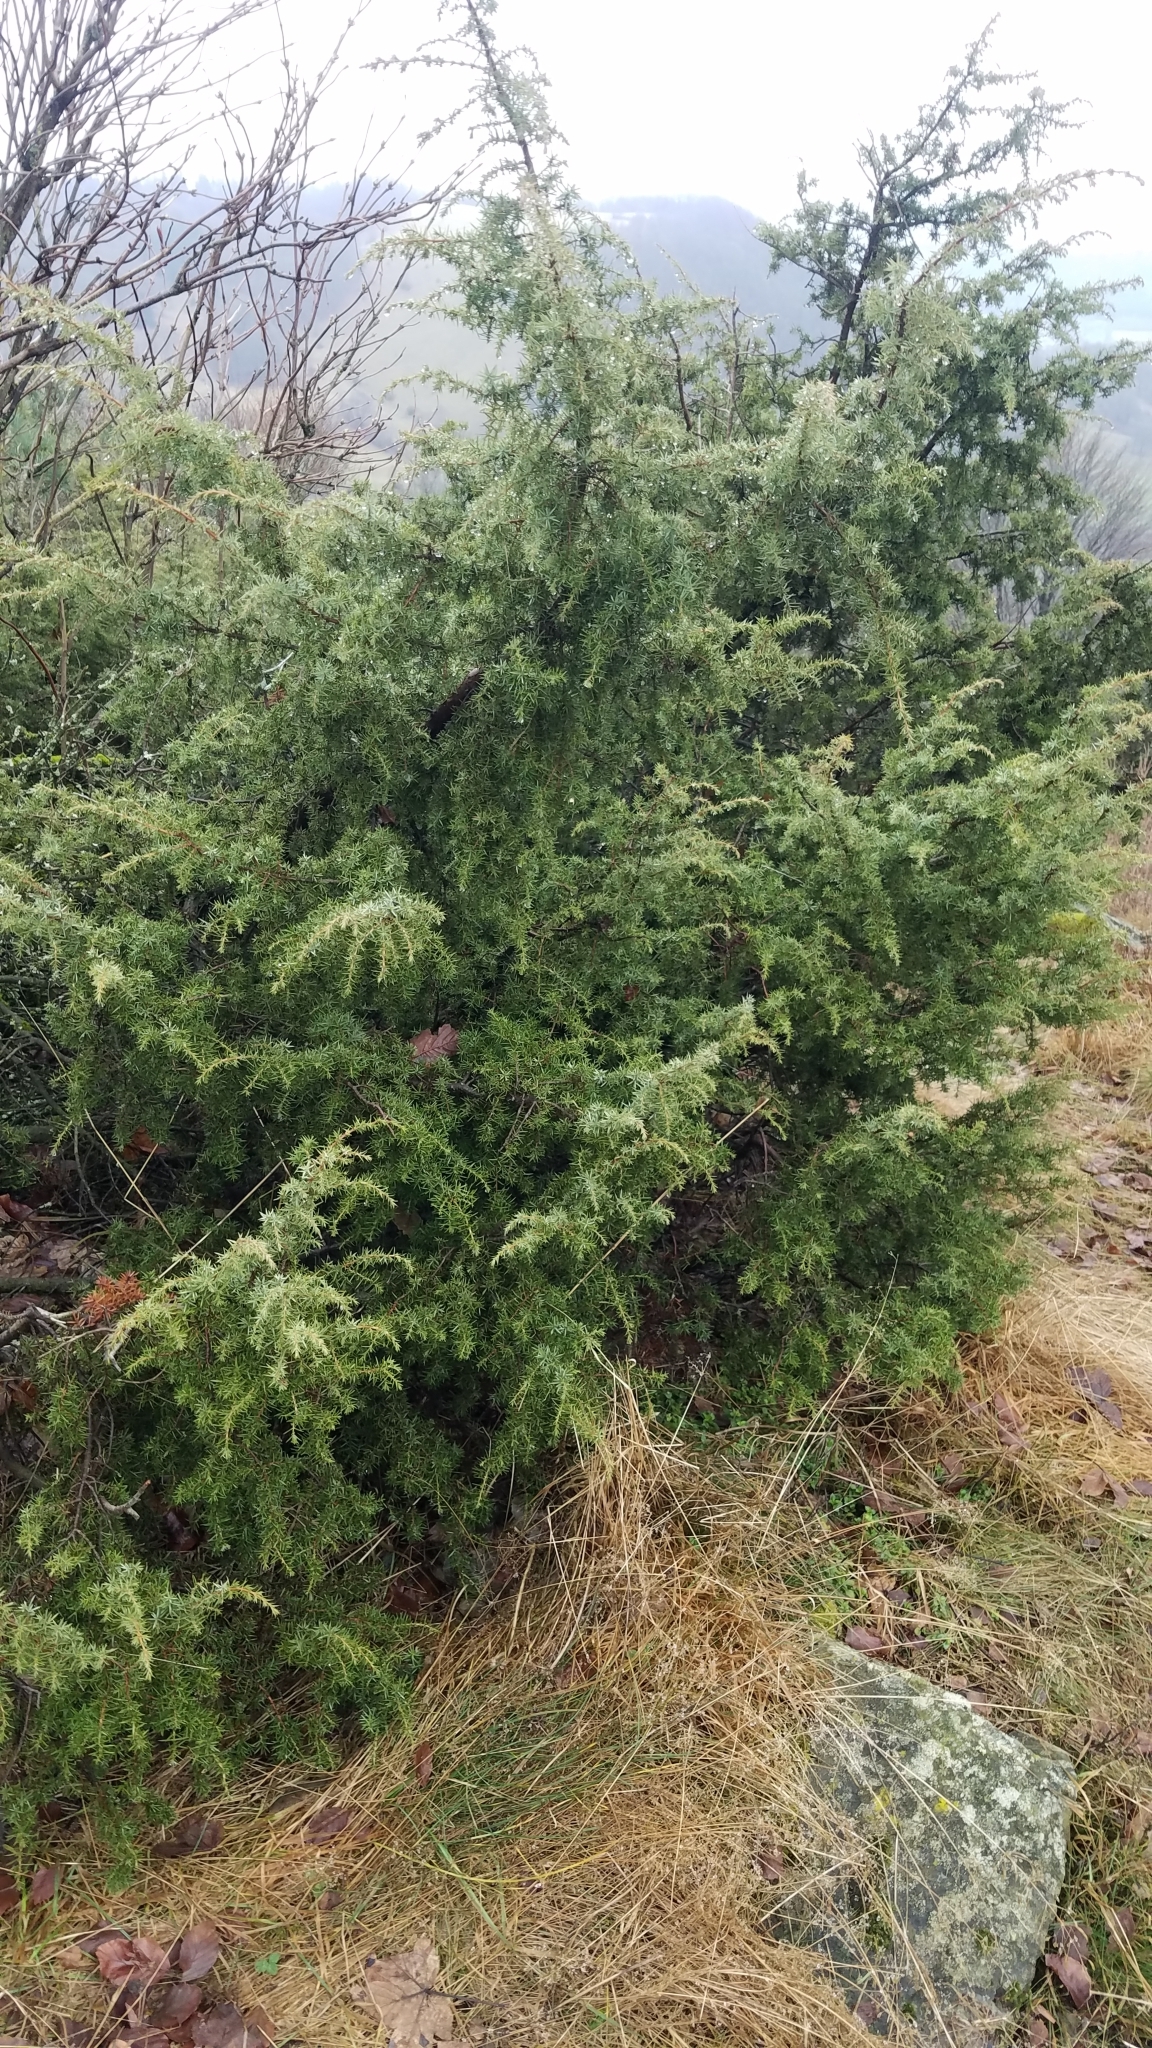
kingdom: Plantae
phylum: Tracheophyta
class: Pinopsida
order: Pinales
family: Cupressaceae
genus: Juniperus
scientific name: Juniperus communis
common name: Common juniper
